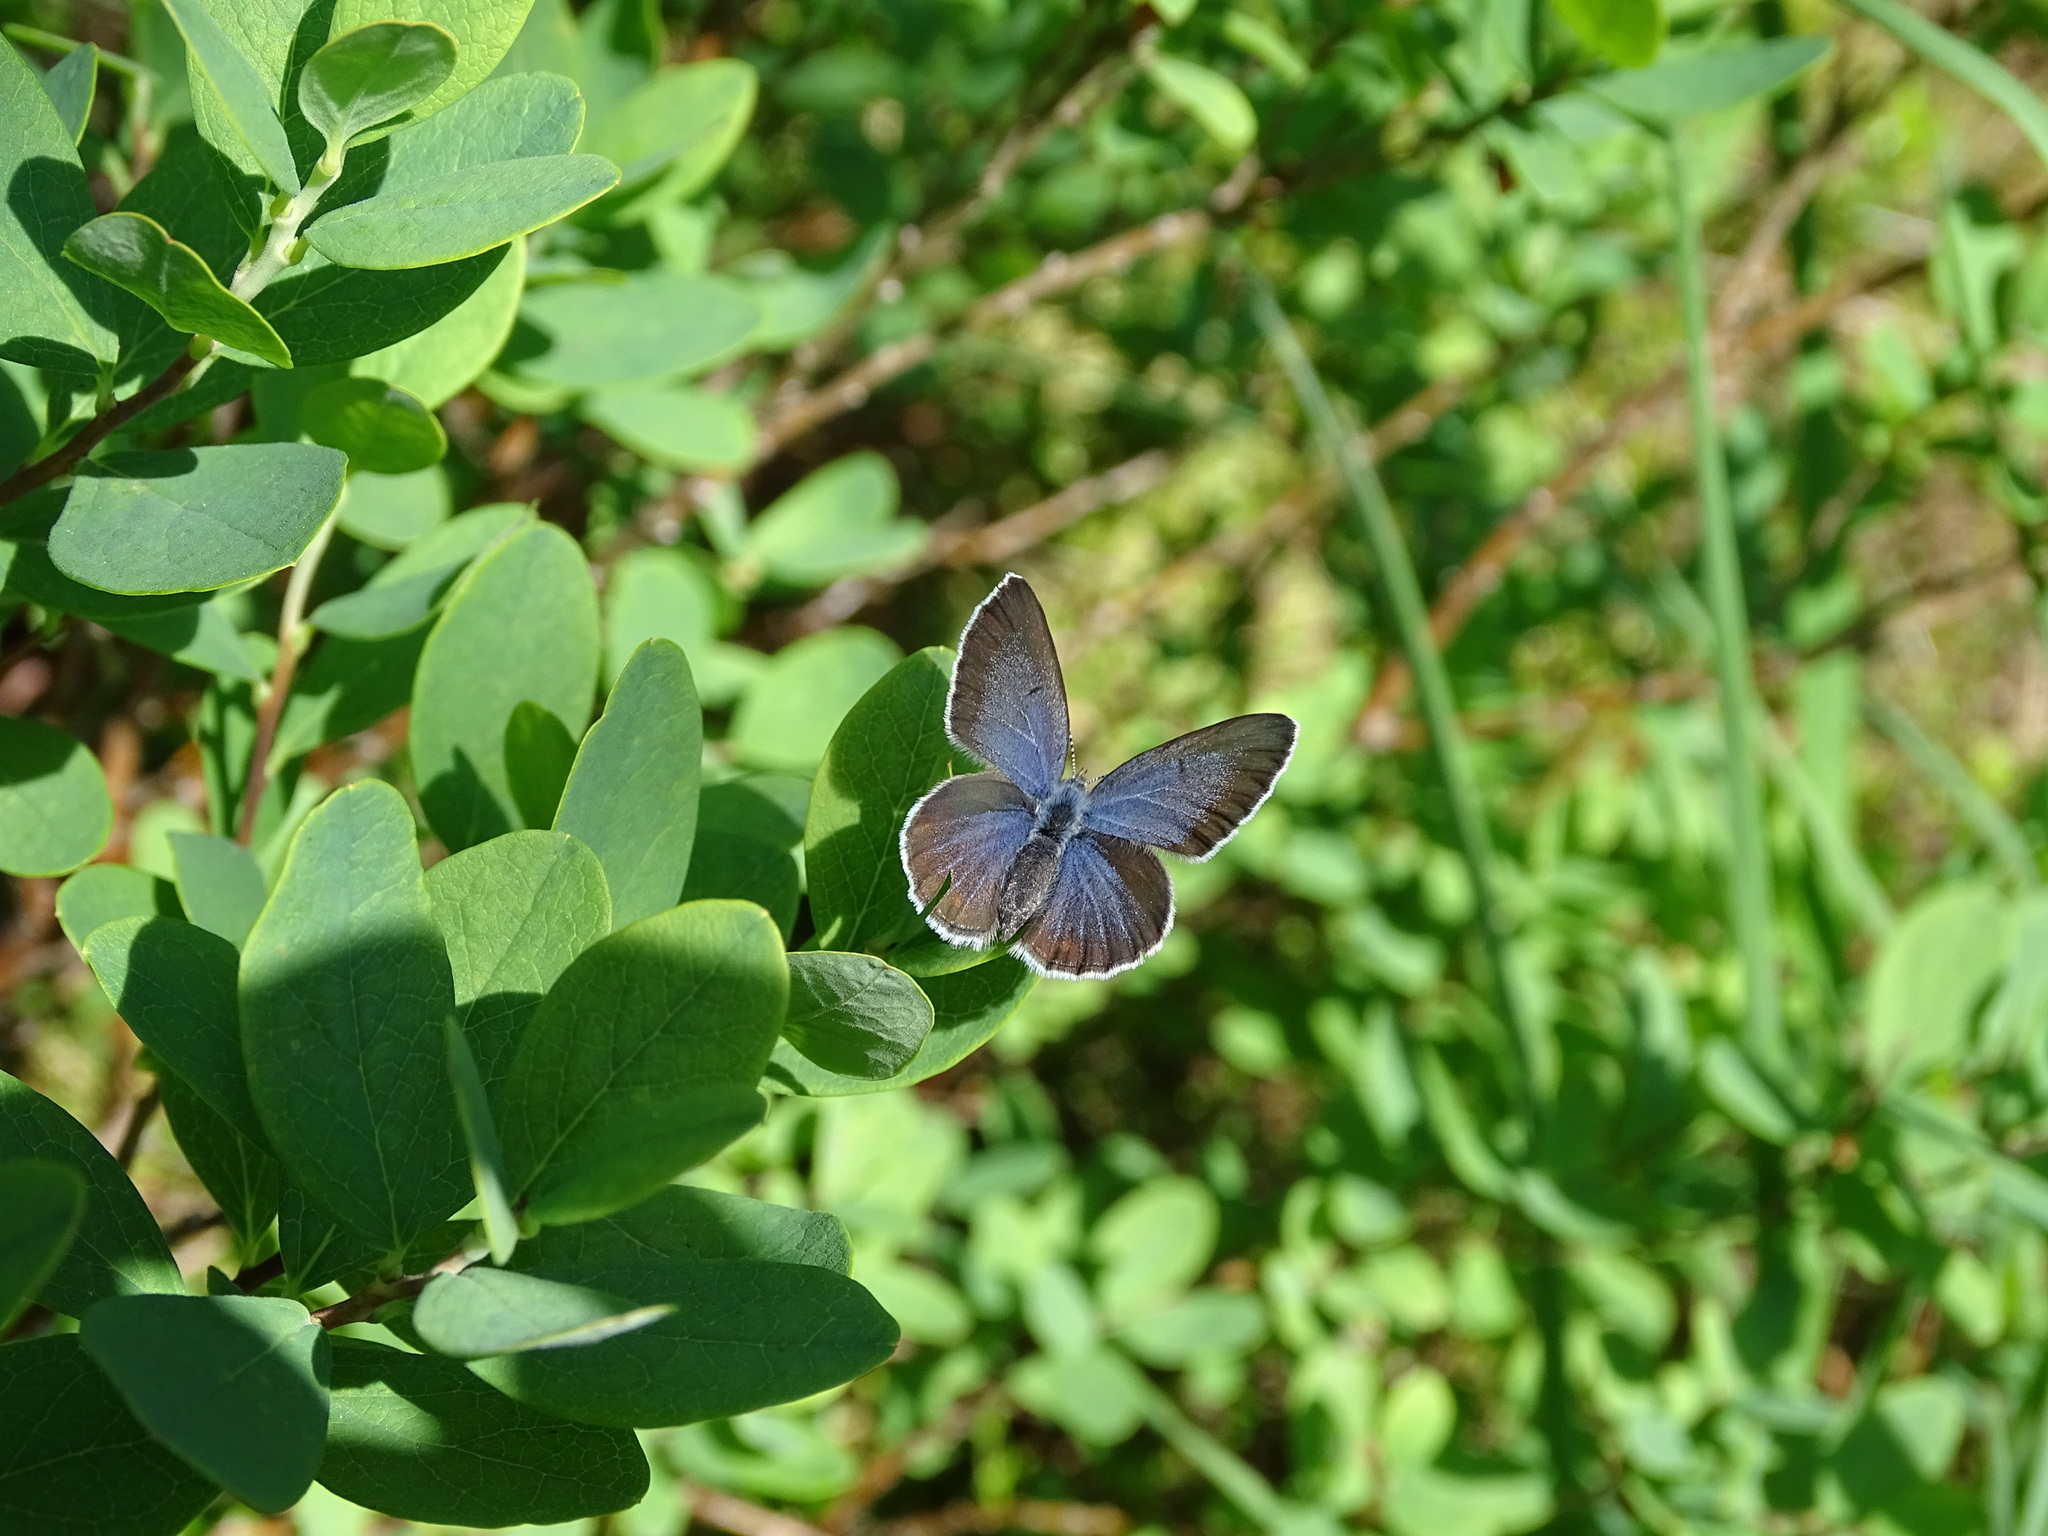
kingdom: Animalia
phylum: Arthropoda
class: Insecta
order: Lepidoptera
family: Lycaenidae
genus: Vacciniina
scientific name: Vacciniina optilete
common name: Cranberry blue
